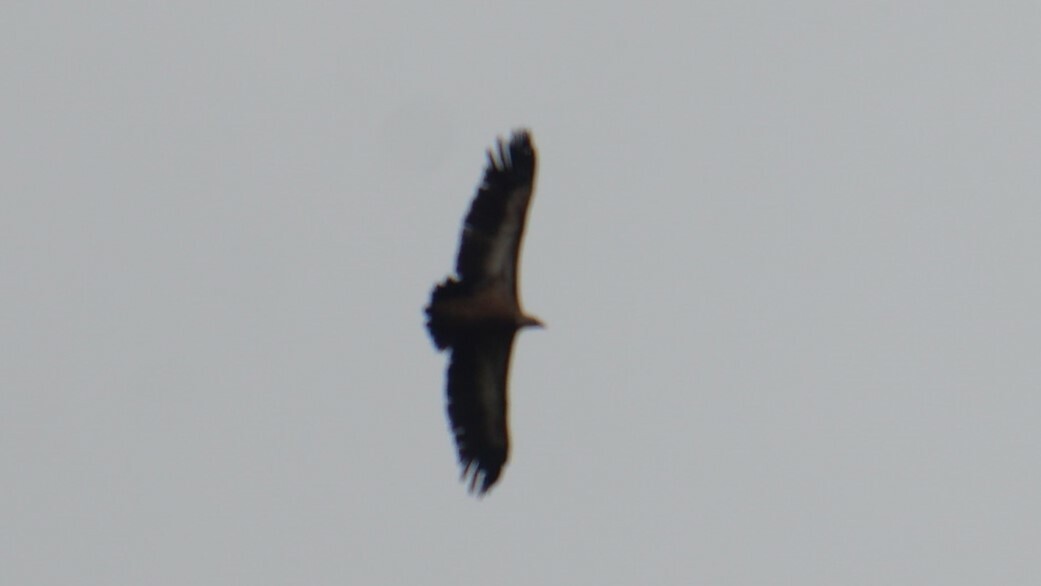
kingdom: Animalia
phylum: Chordata
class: Aves
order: Accipitriformes
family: Accipitridae
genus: Gyps
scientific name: Gyps fulvus
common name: Griffon vulture
